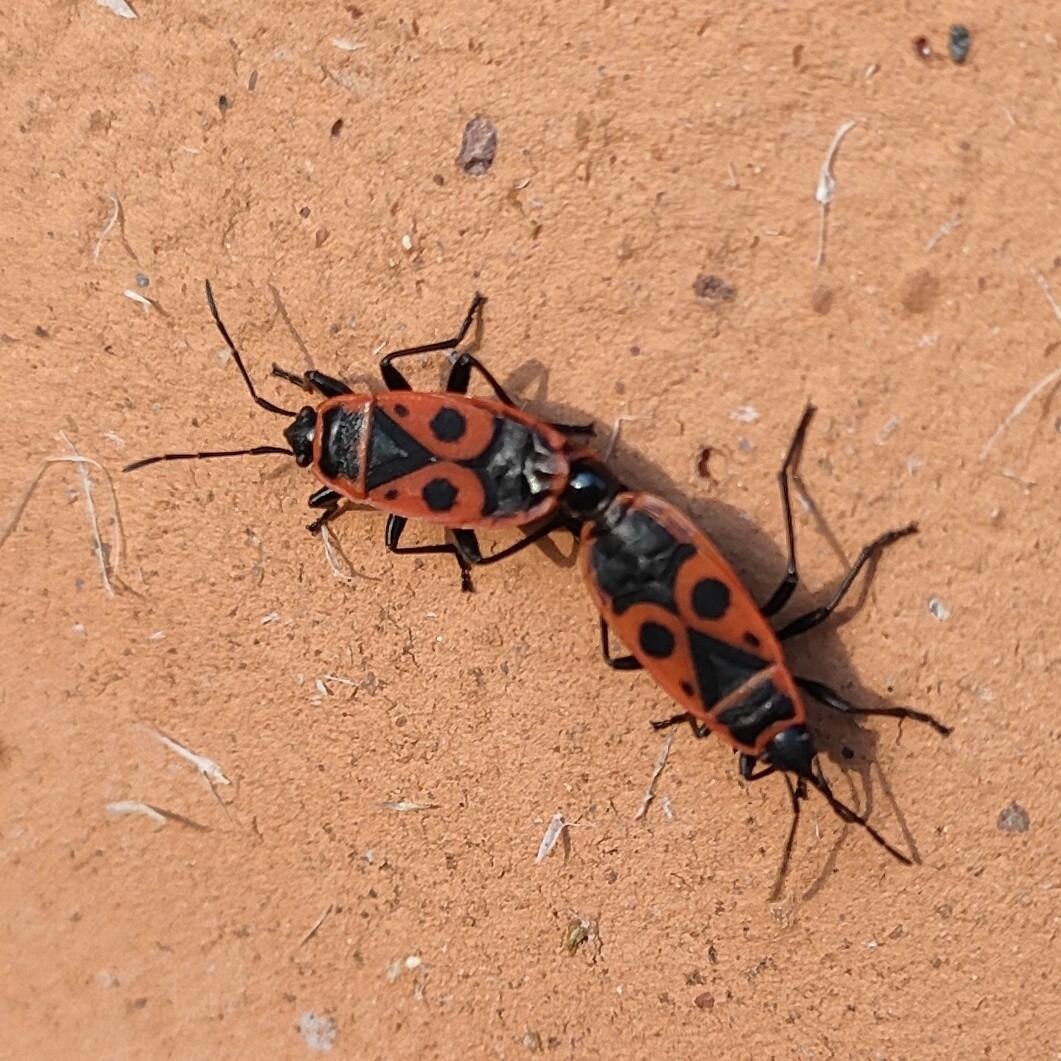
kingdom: Animalia
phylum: Arthropoda
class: Insecta
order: Hemiptera
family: Pyrrhocoridae
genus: Pyrrhocoris
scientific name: Pyrrhocoris apterus
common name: Firebug
